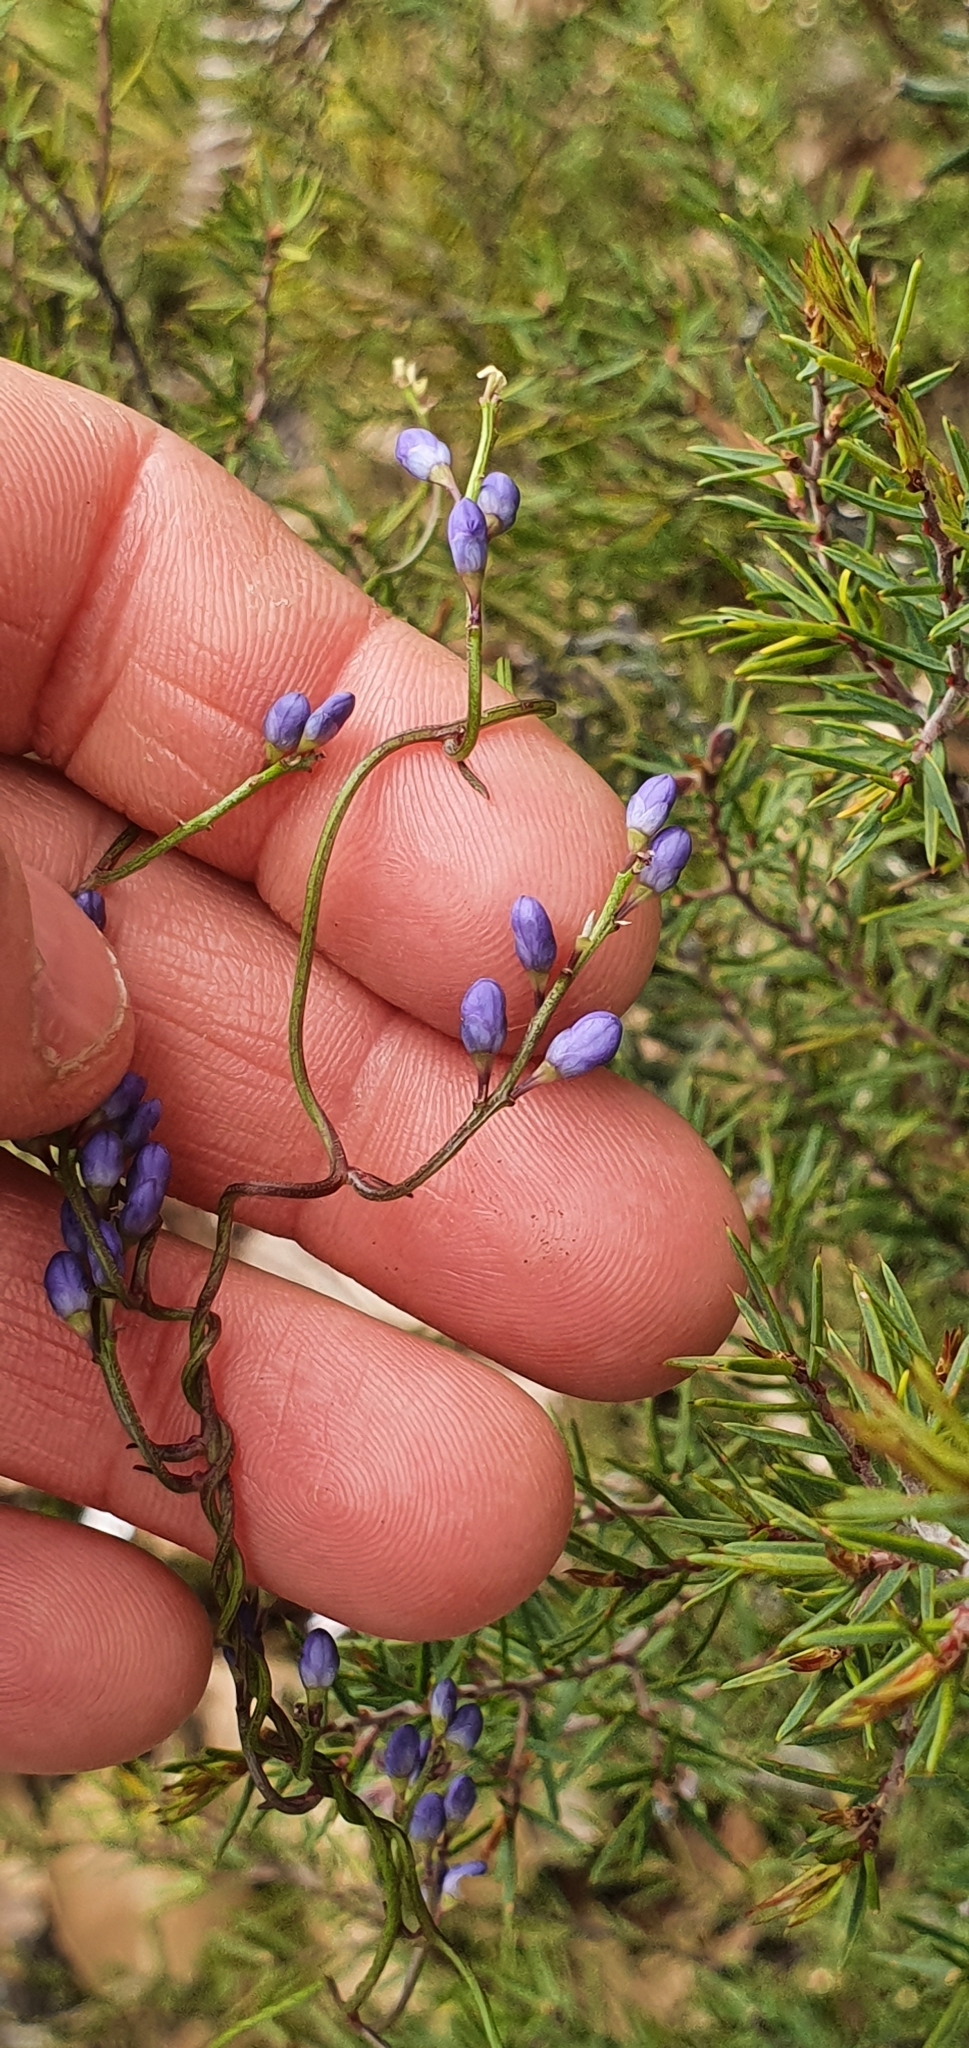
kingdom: Plantae
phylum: Tracheophyta
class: Magnoliopsida
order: Fabales
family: Polygalaceae
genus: Comesperma
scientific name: Comesperma volubile
